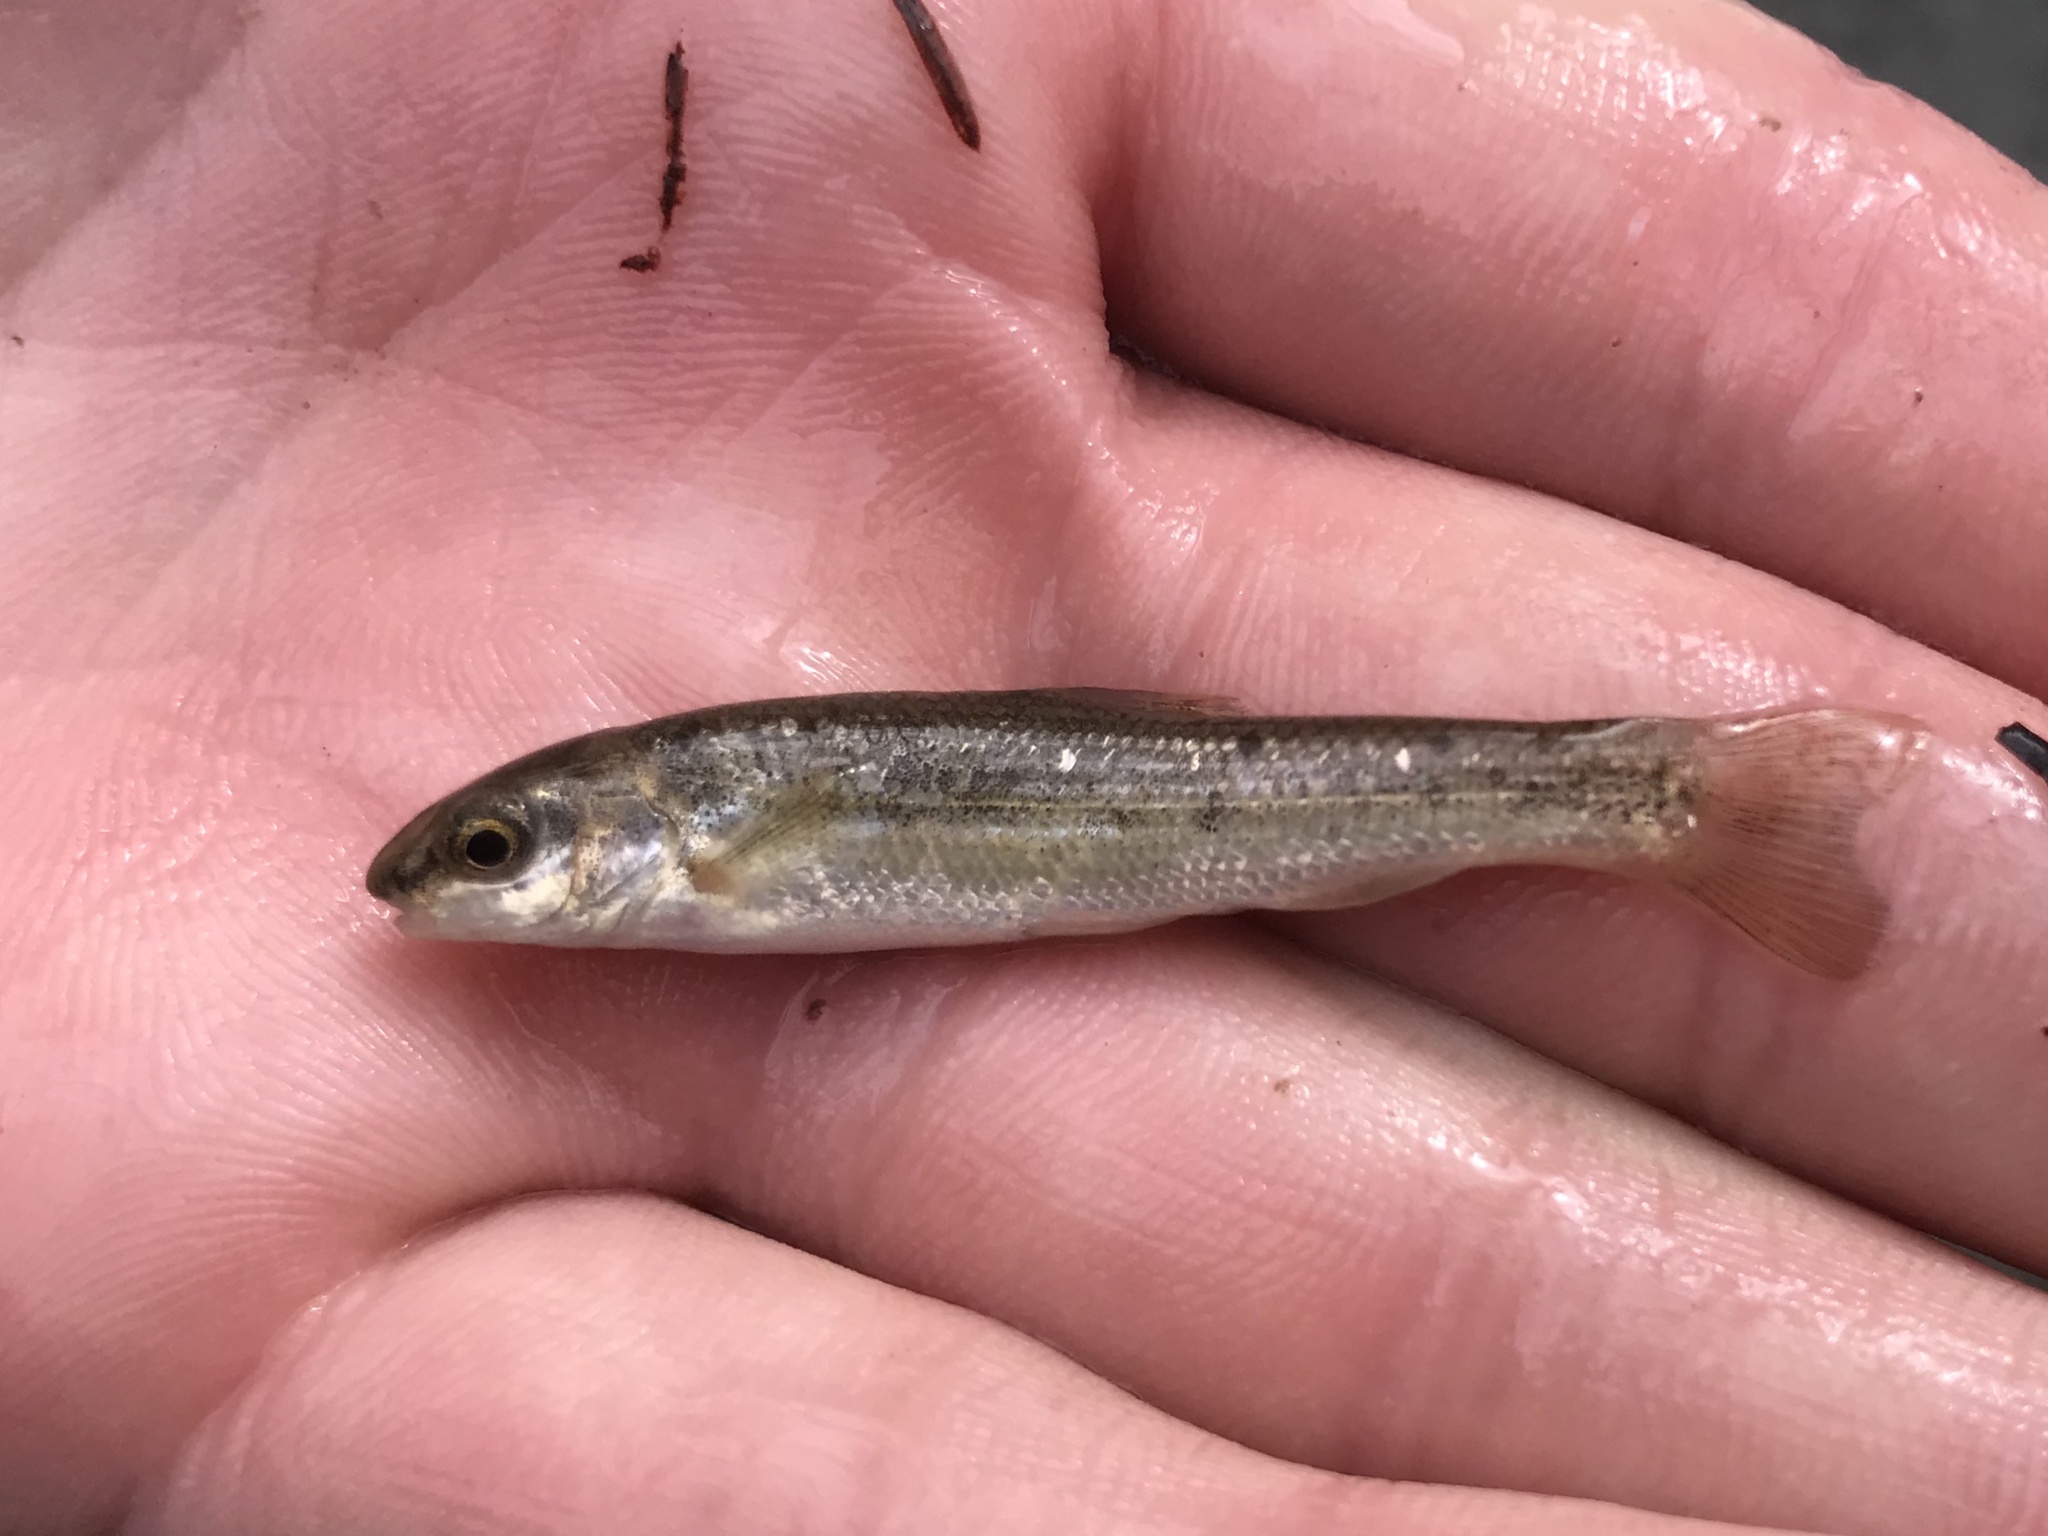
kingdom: Animalia
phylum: Chordata
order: Cypriniformes
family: Cyprinidae
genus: Campostoma
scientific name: Campostoma anomalum
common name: Central stoneroller
